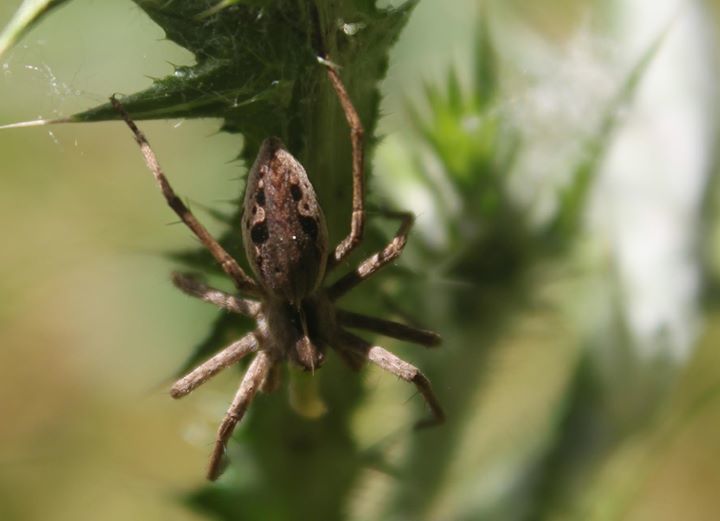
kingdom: Animalia
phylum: Arthropoda
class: Arachnida
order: Araneae
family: Pisauridae
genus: Pisaura
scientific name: Pisaura mirabilis
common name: Tent spider
